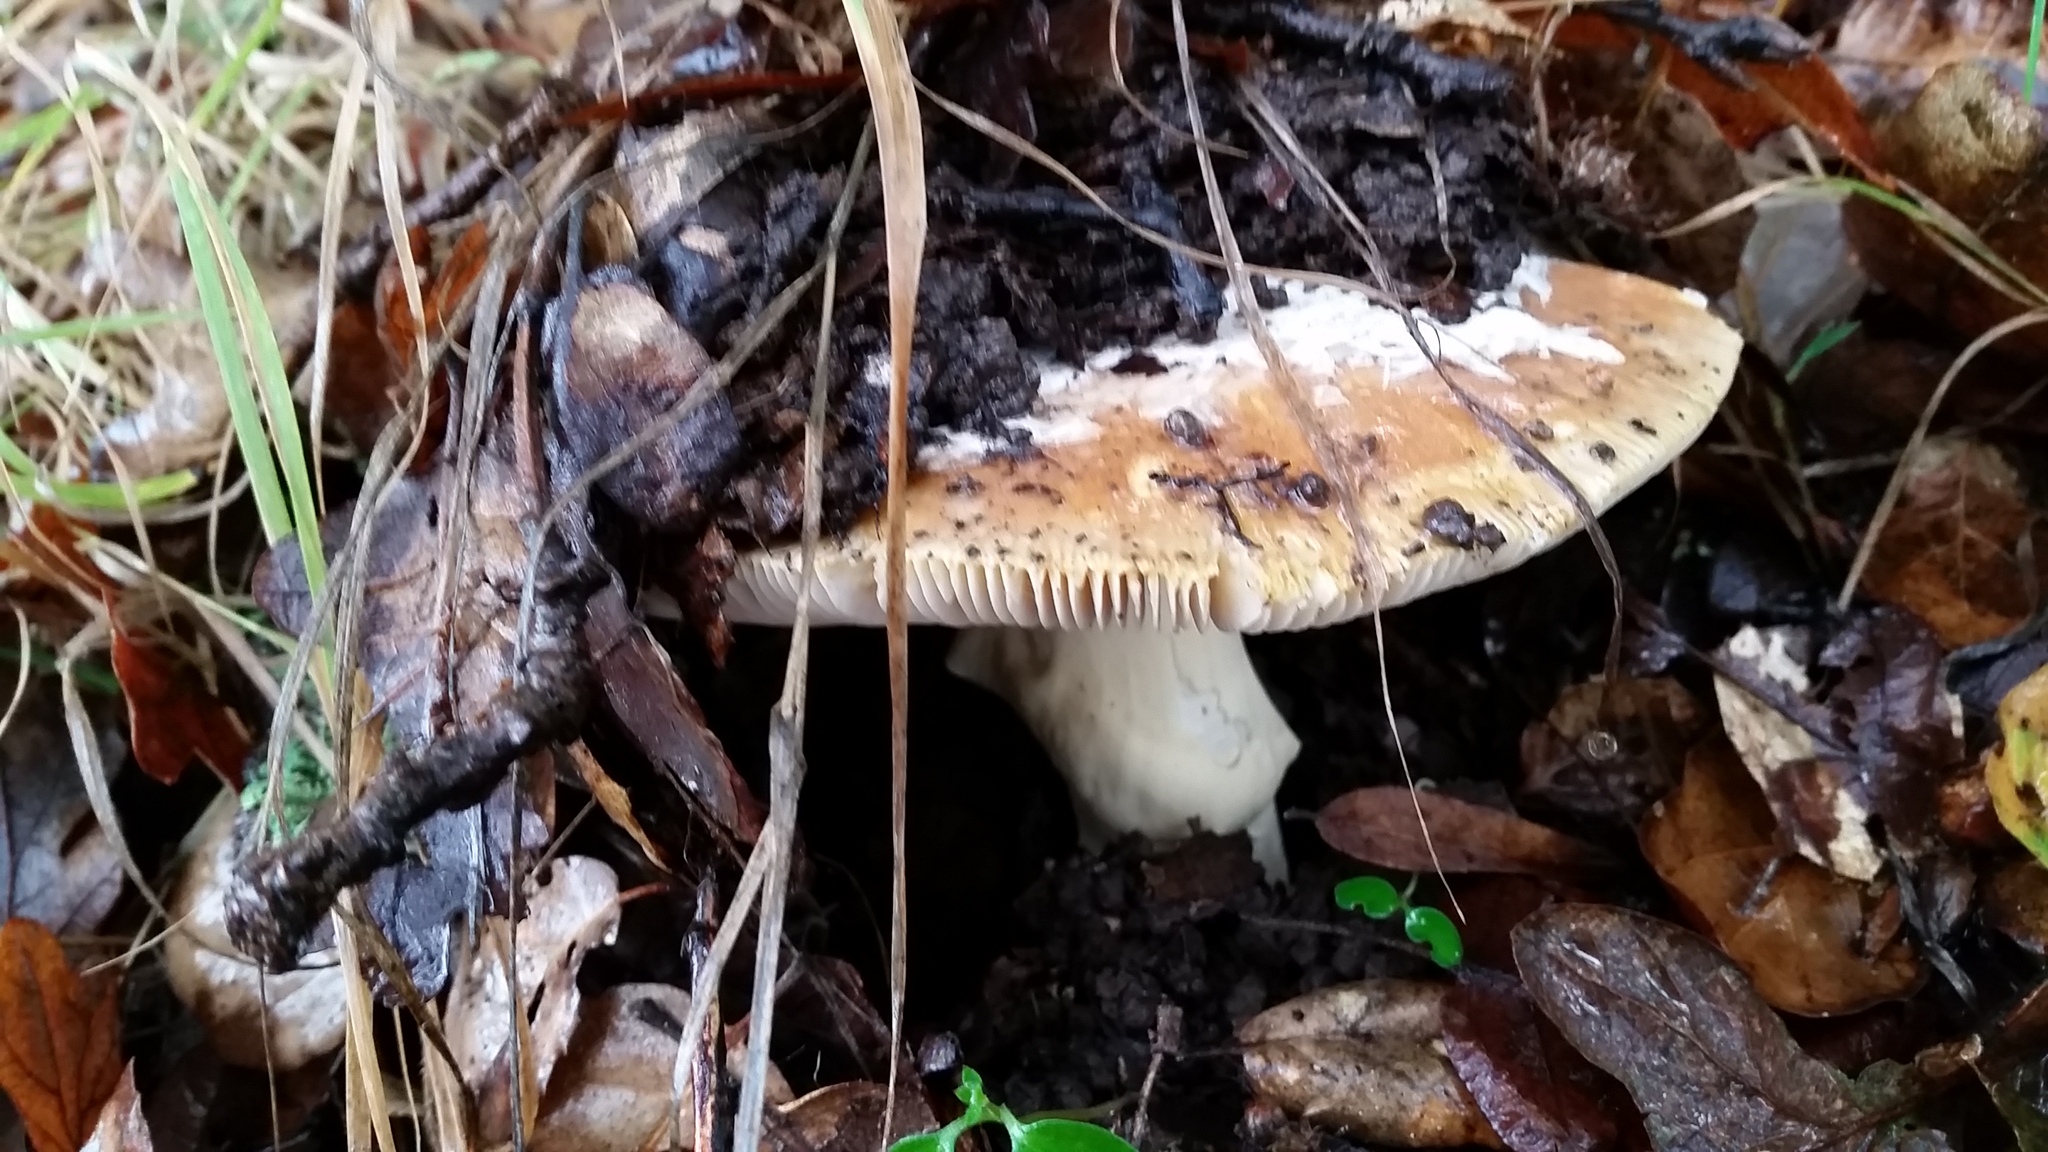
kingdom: Fungi
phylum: Basidiomycota
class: Agaricomycetes
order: Agaricales
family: Amanitaceae
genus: Amanita
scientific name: Amanita calyptroderma
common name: Coccora
